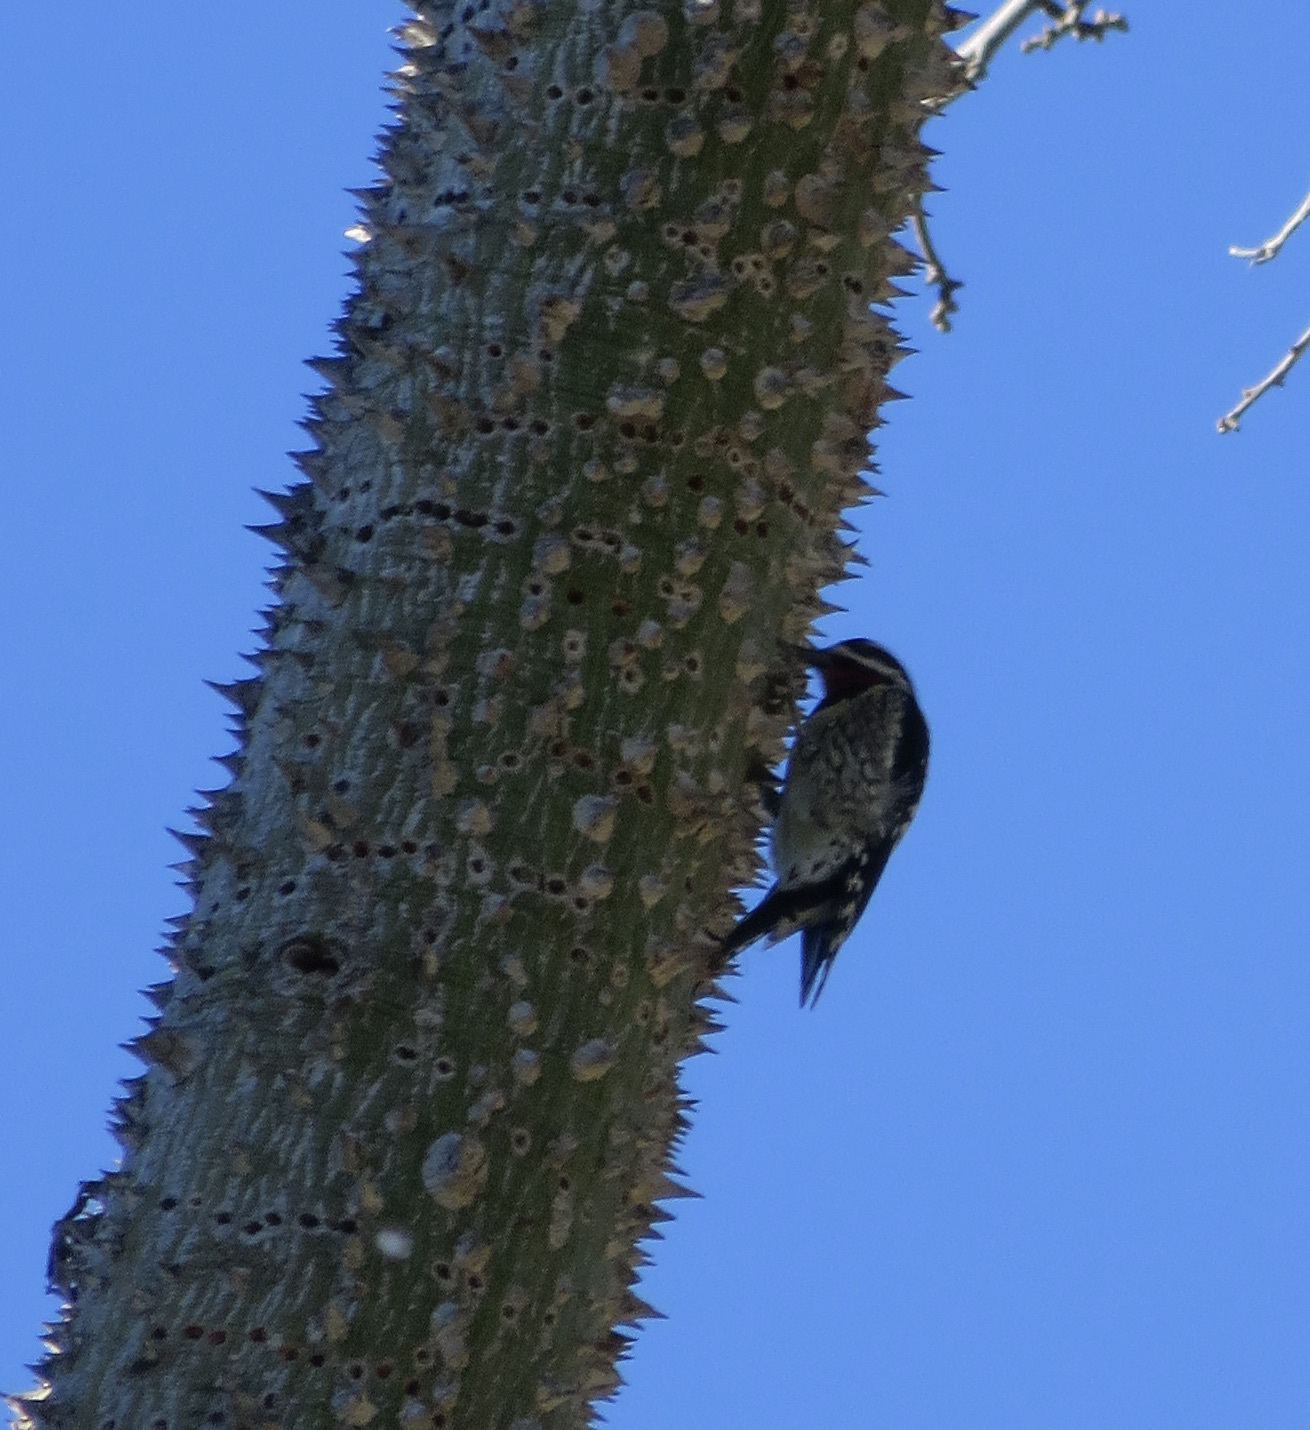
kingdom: Animalia
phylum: Chordata
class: Aves
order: Piciformes
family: Picidae
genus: Sphyrapicus
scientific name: Sphyrapicus nuchalis
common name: Red-naped sapsucker
